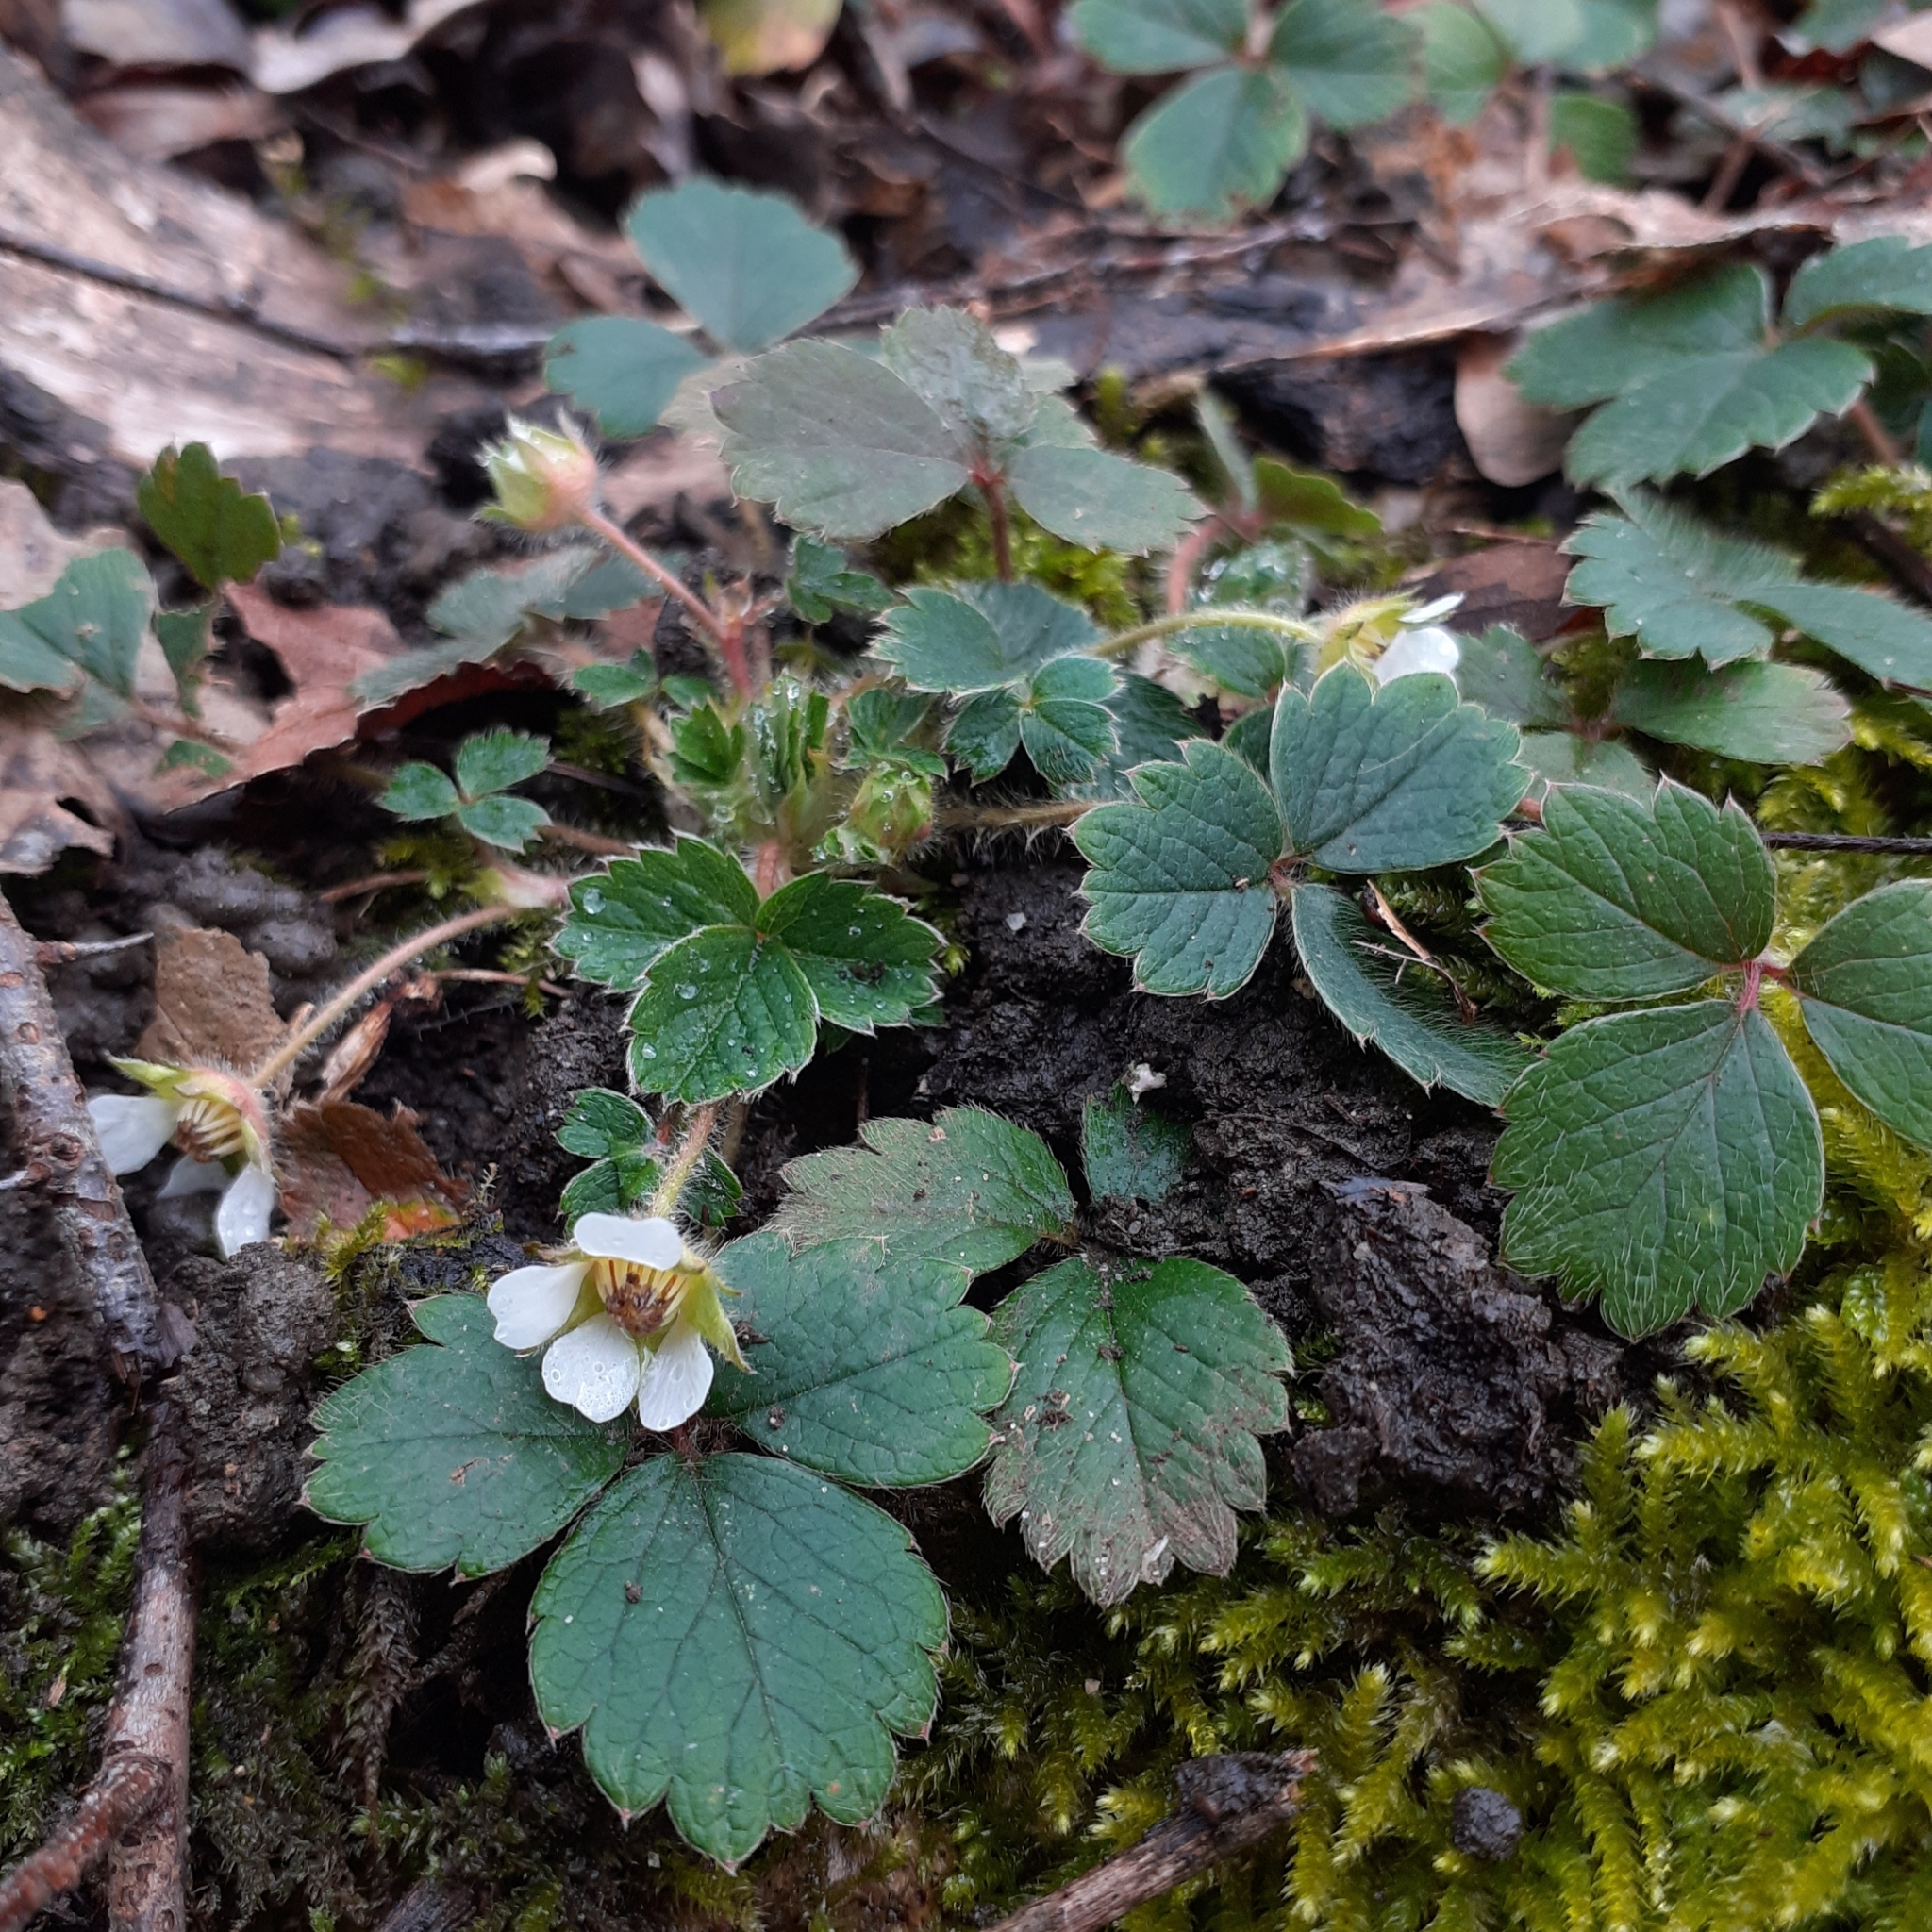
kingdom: Plantae
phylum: Tracheophyta
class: Magnoliopsida
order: Rosales
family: Rosaceae
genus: Potentilla
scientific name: Potentilla sterilis
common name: Barren strawberry
